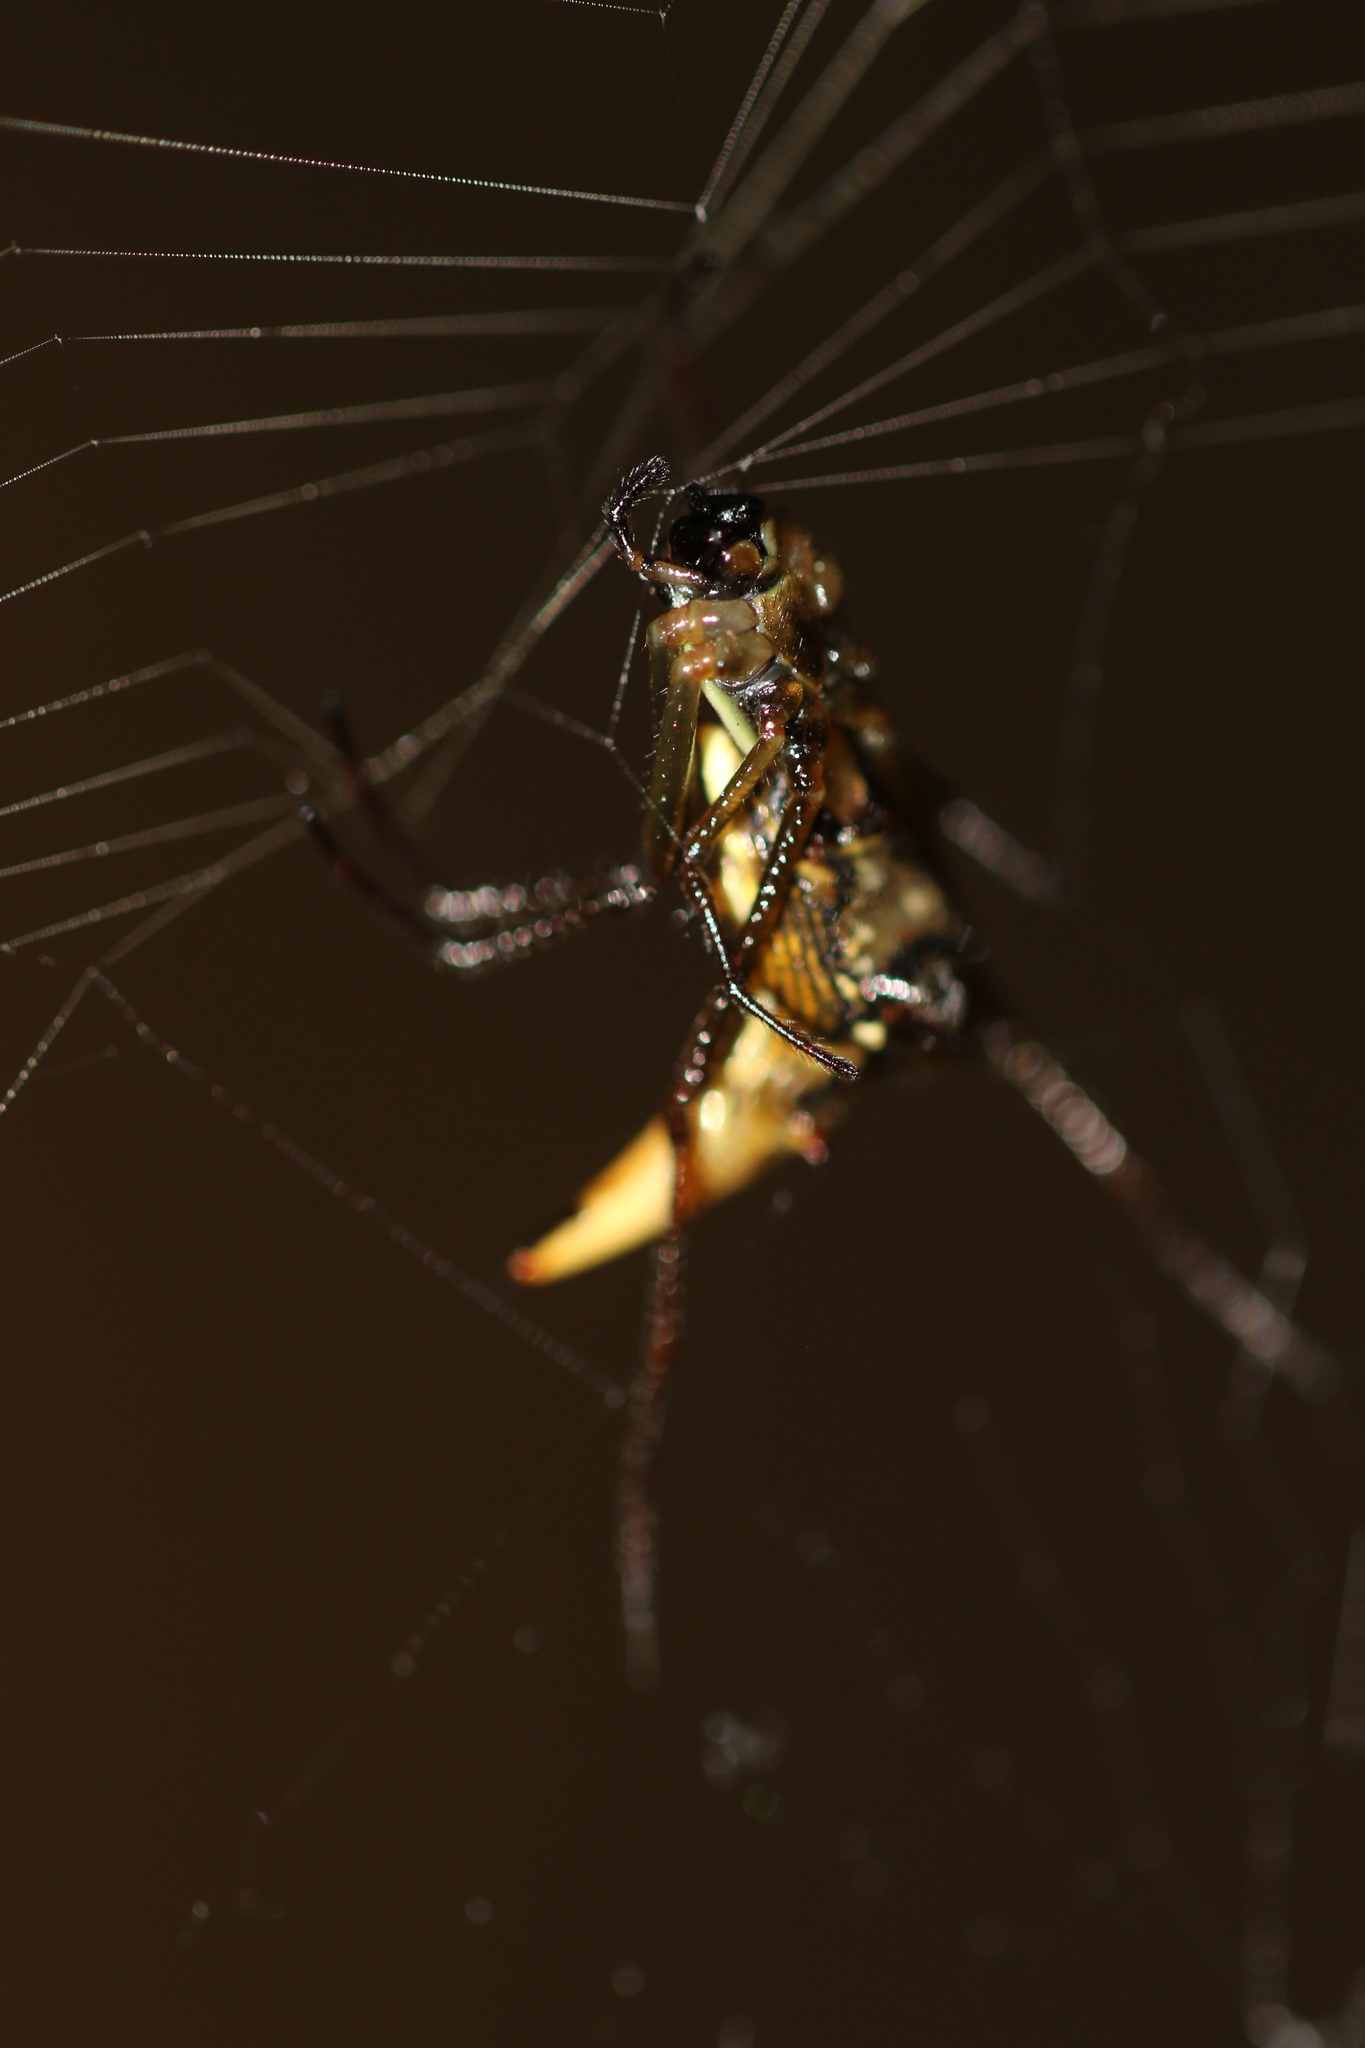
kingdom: Animalia
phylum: Arthropoda
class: Arachnida
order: Araneae
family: Araneidae
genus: Micrathena
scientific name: Micrathena sanctispiritus
